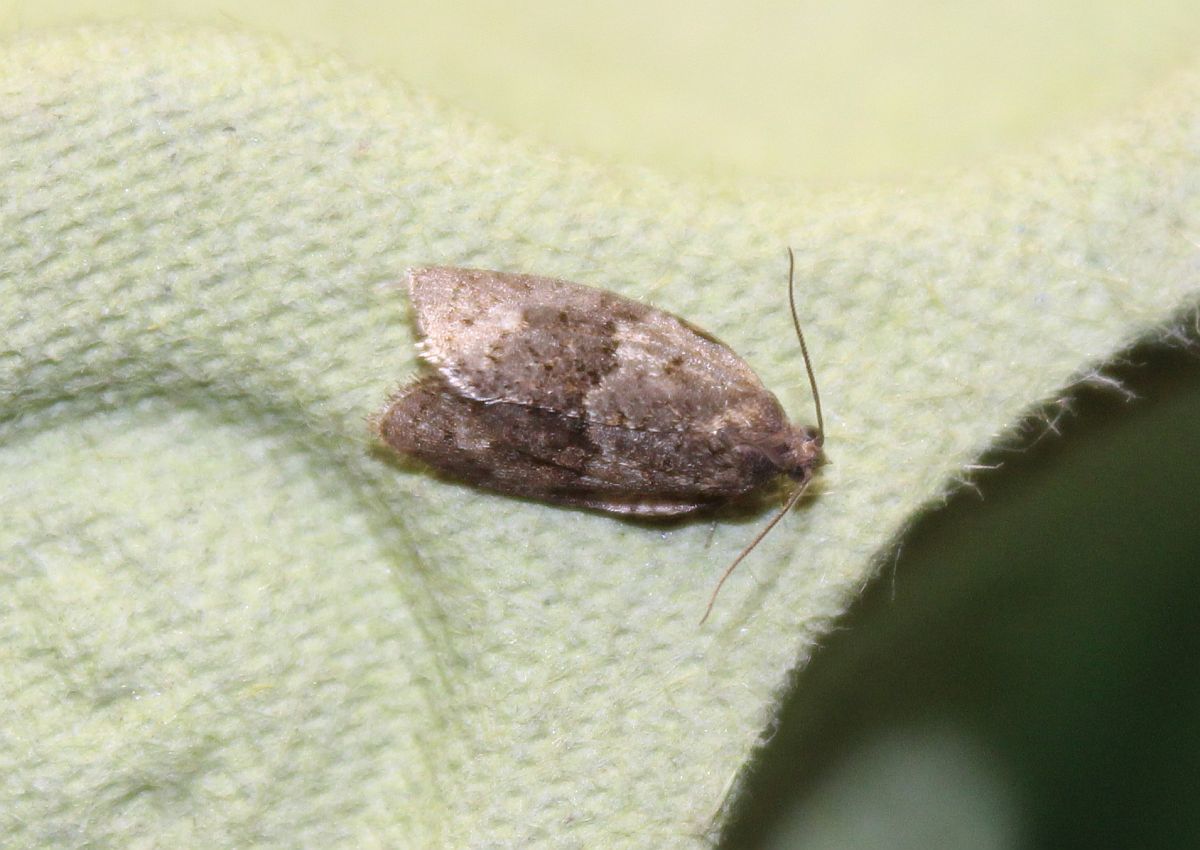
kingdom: Animalia
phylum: Arthropoda
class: Insecta
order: Lepidoptera
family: Tortricidae
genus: Syndemis
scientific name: Syndemis musculana
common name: Dark-barred twist
